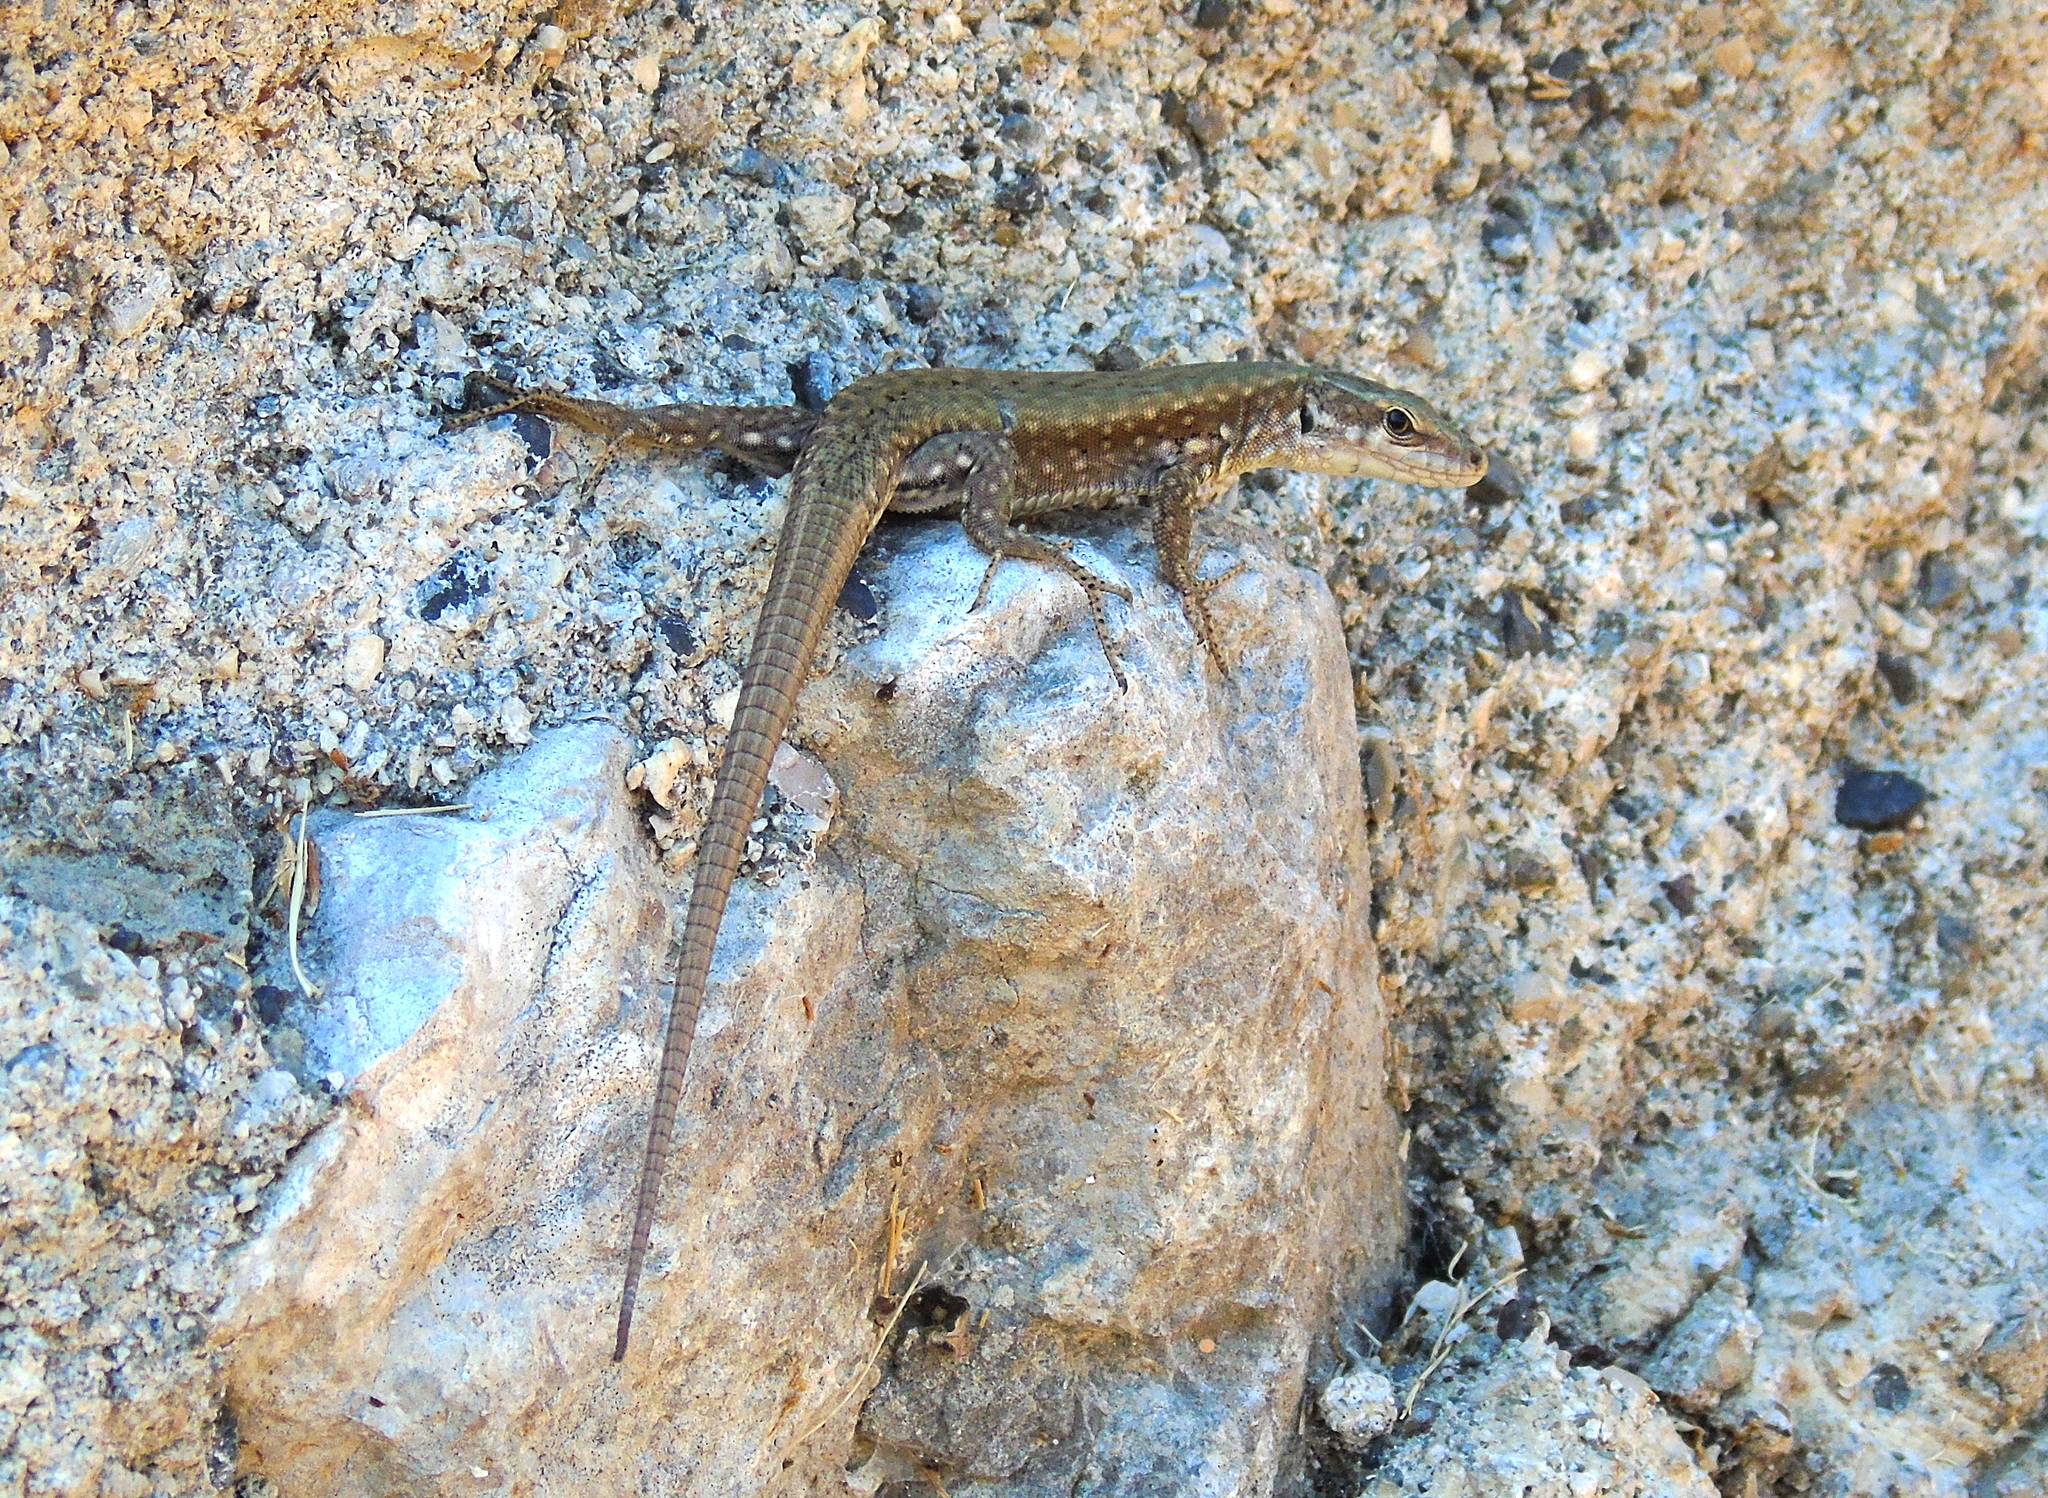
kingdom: Animalia
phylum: Chordata
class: Squamata
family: Lacertidae
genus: Podarcis
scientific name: Podarcis muralis
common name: Common wall lizard
